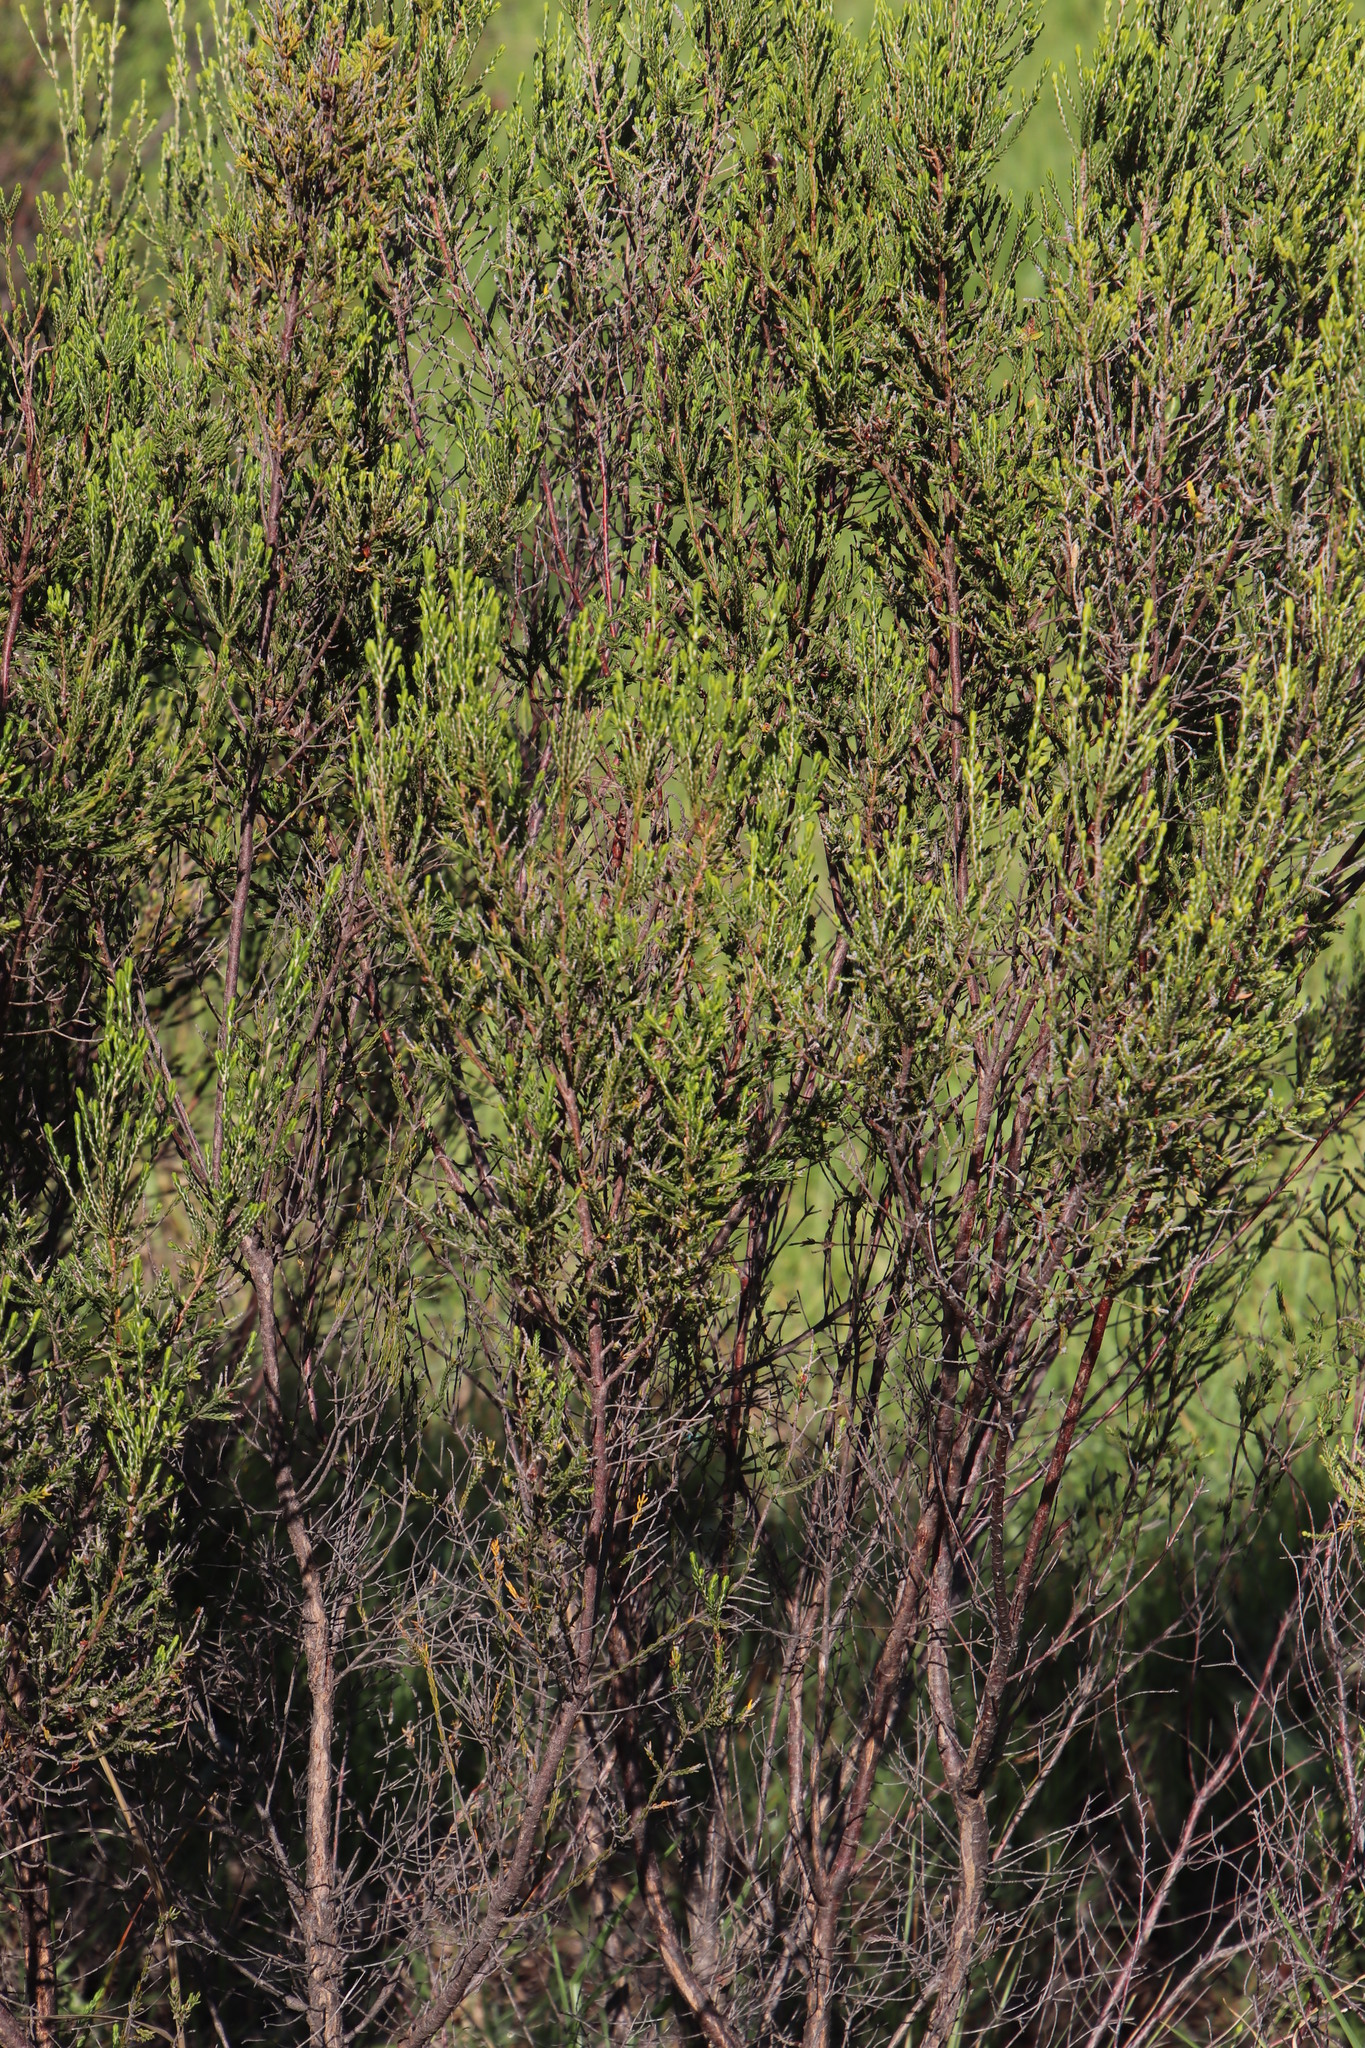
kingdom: Plantae
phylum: Tracheophyta
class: Magnoliopsida
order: Malvales
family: Thymelaeaceae
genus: Passerina
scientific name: Passerina corymbosa
